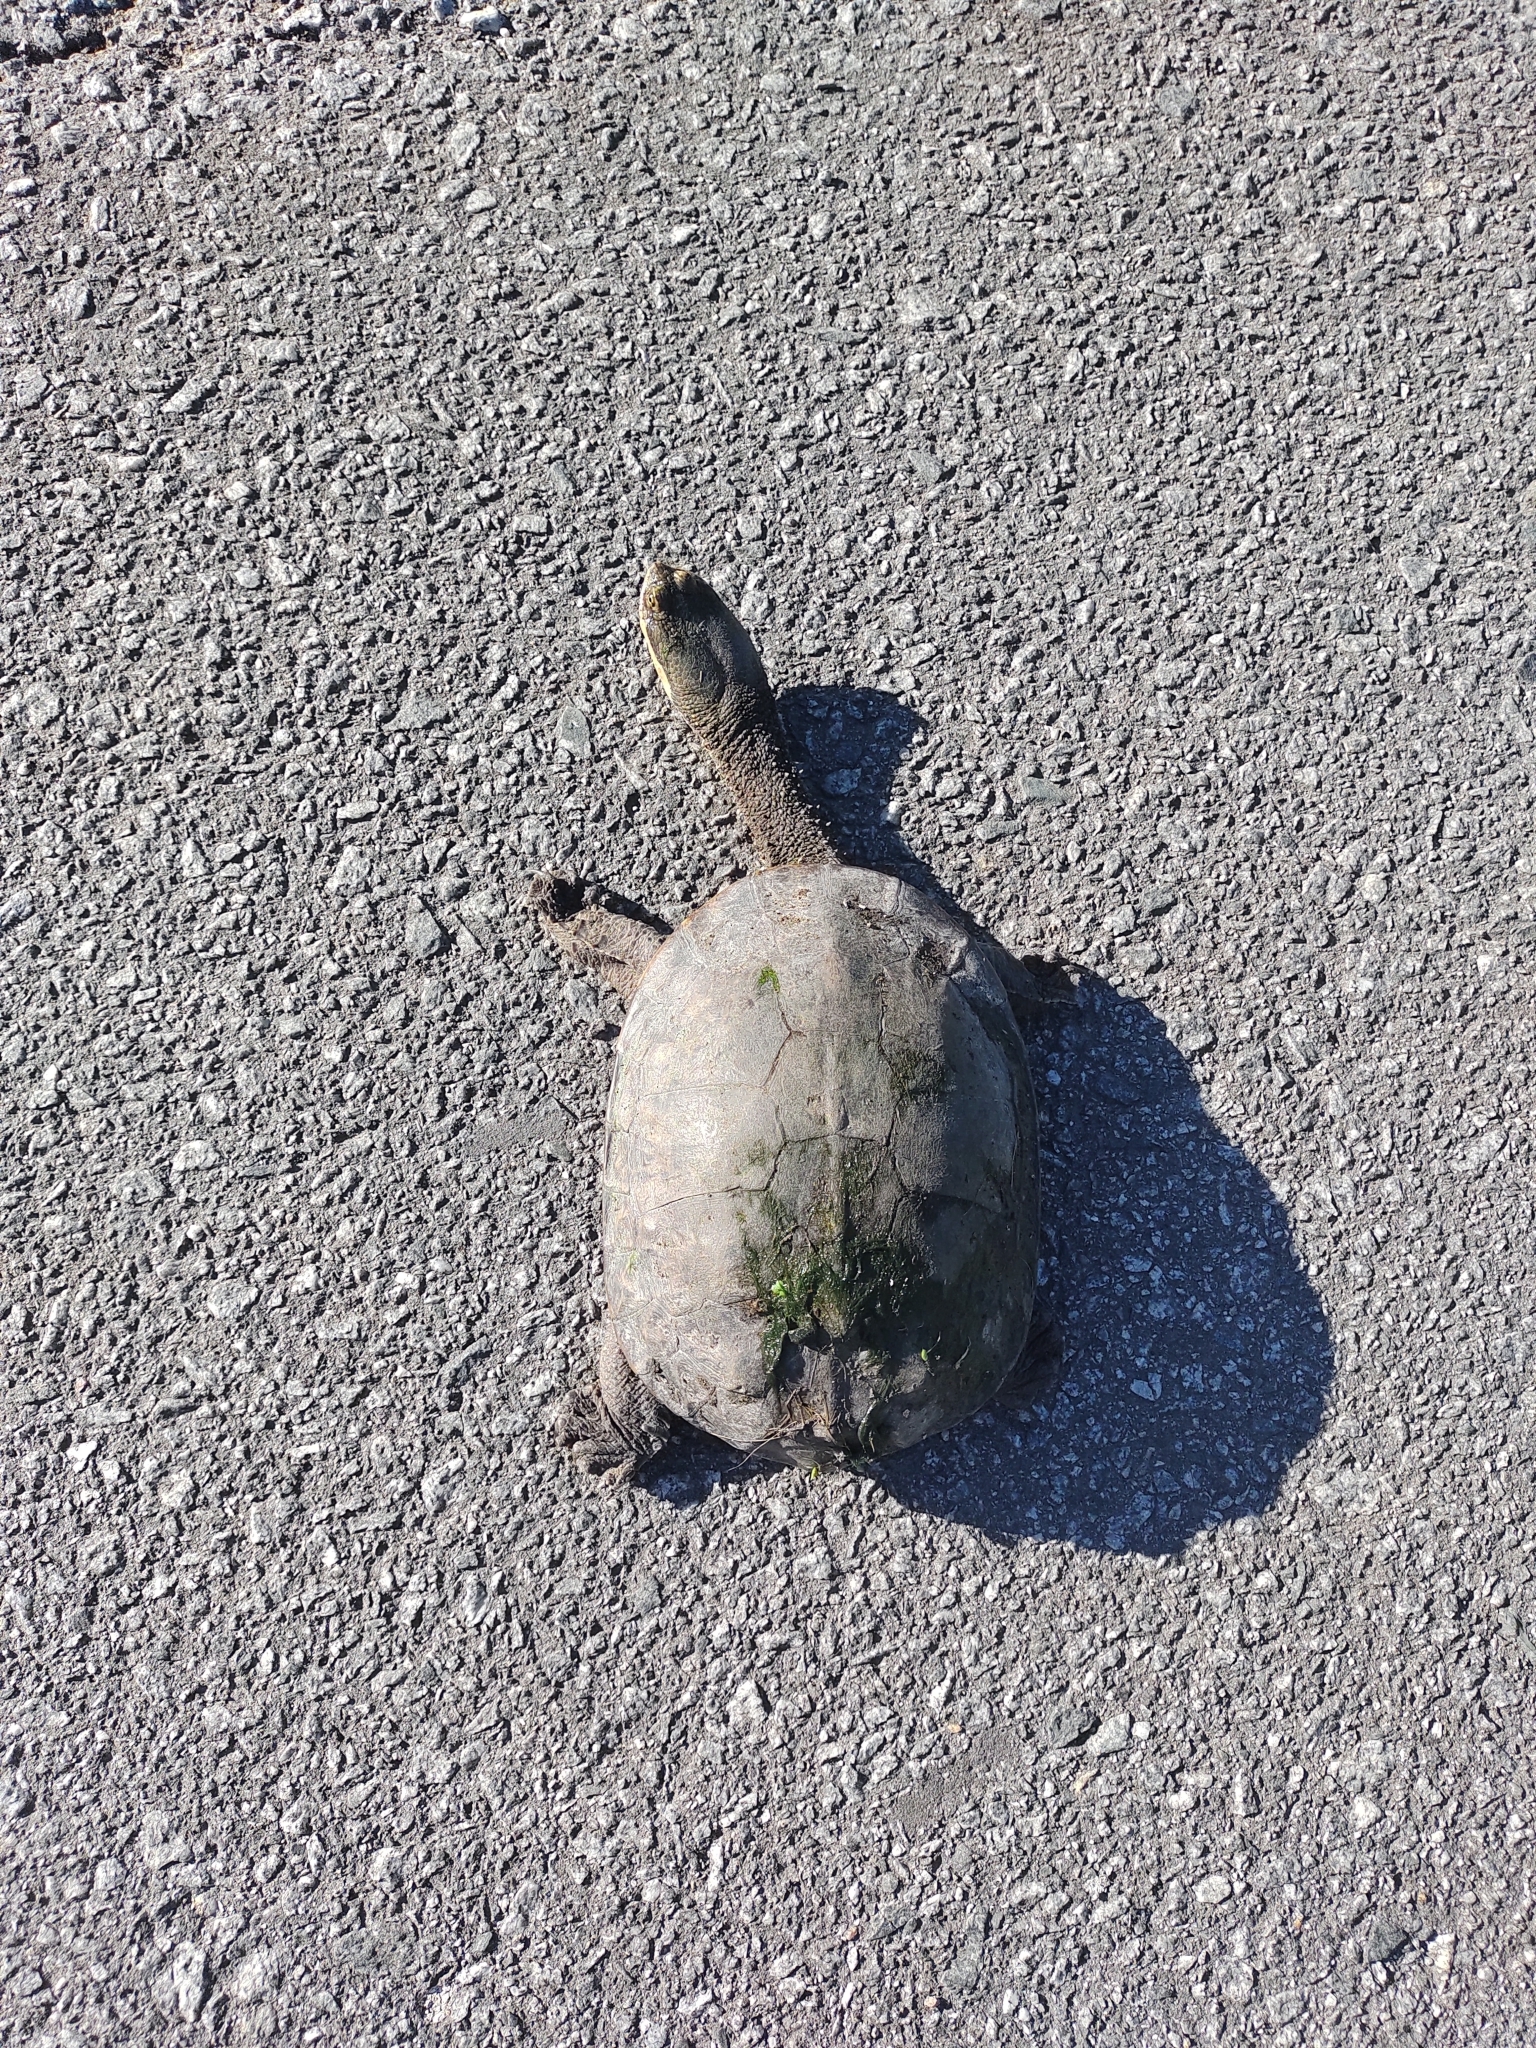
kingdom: Animalia
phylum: Chordata
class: Testudines
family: Chelidae
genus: Hydromedusa
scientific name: Hydromedusa tectifera
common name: Argentine snake-necked turtle
